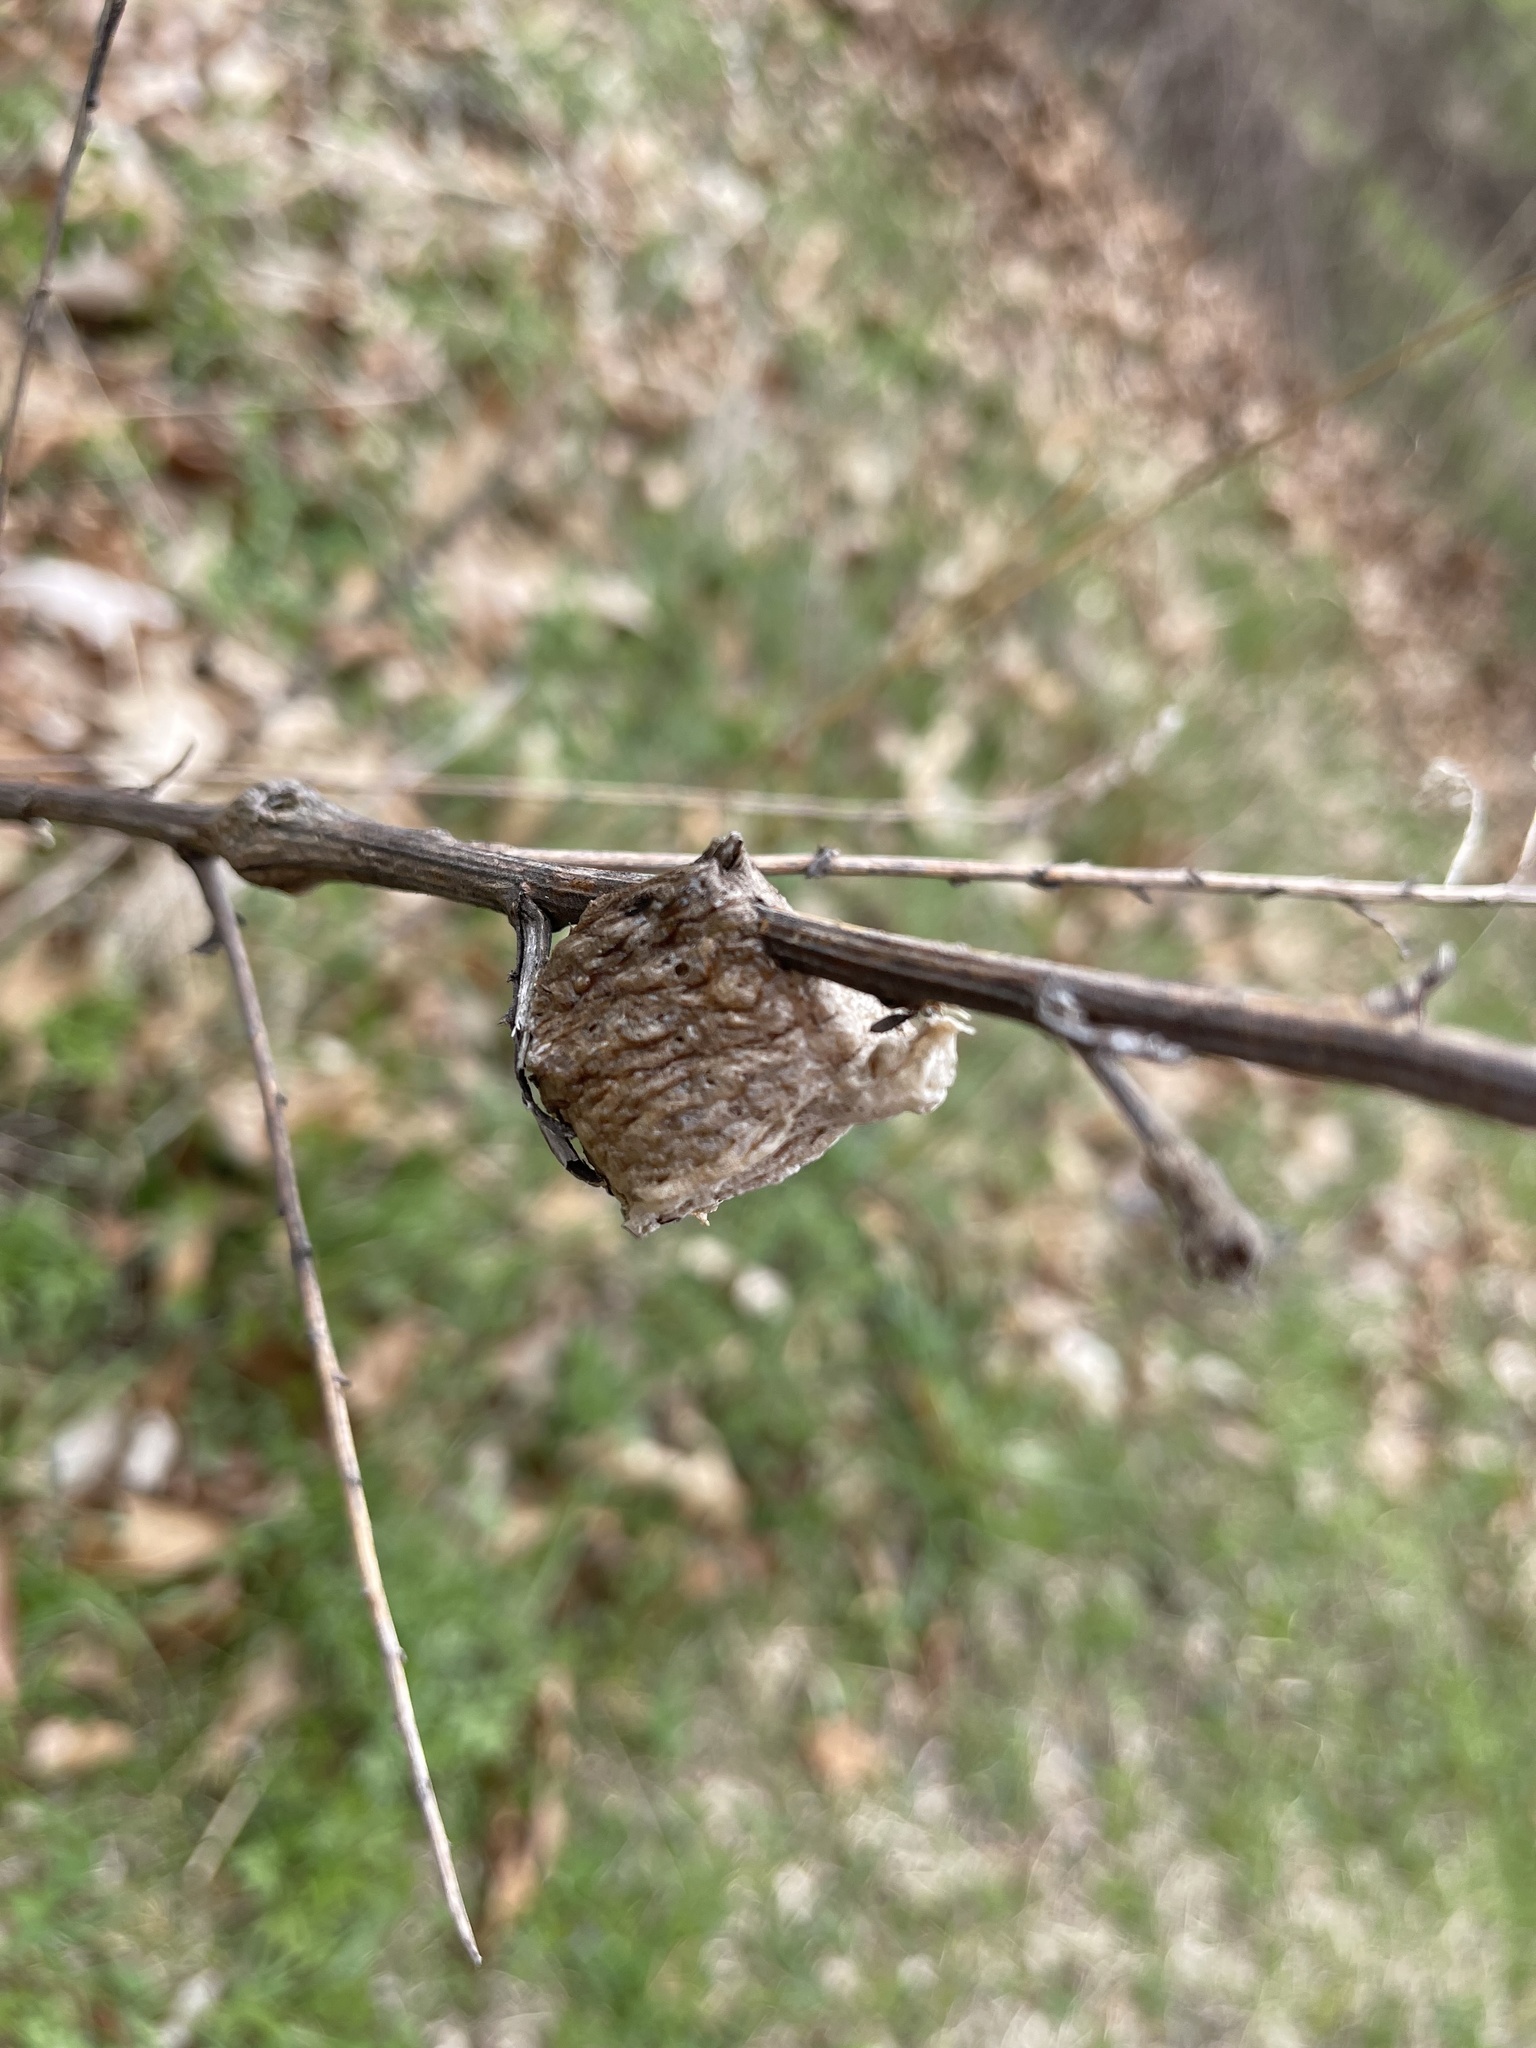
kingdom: Animalia
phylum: Arthropoda
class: Insecta
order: Mantodea
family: Mantidae
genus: Tenodera
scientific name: Tenodera sinensis
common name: Chinese mantis
